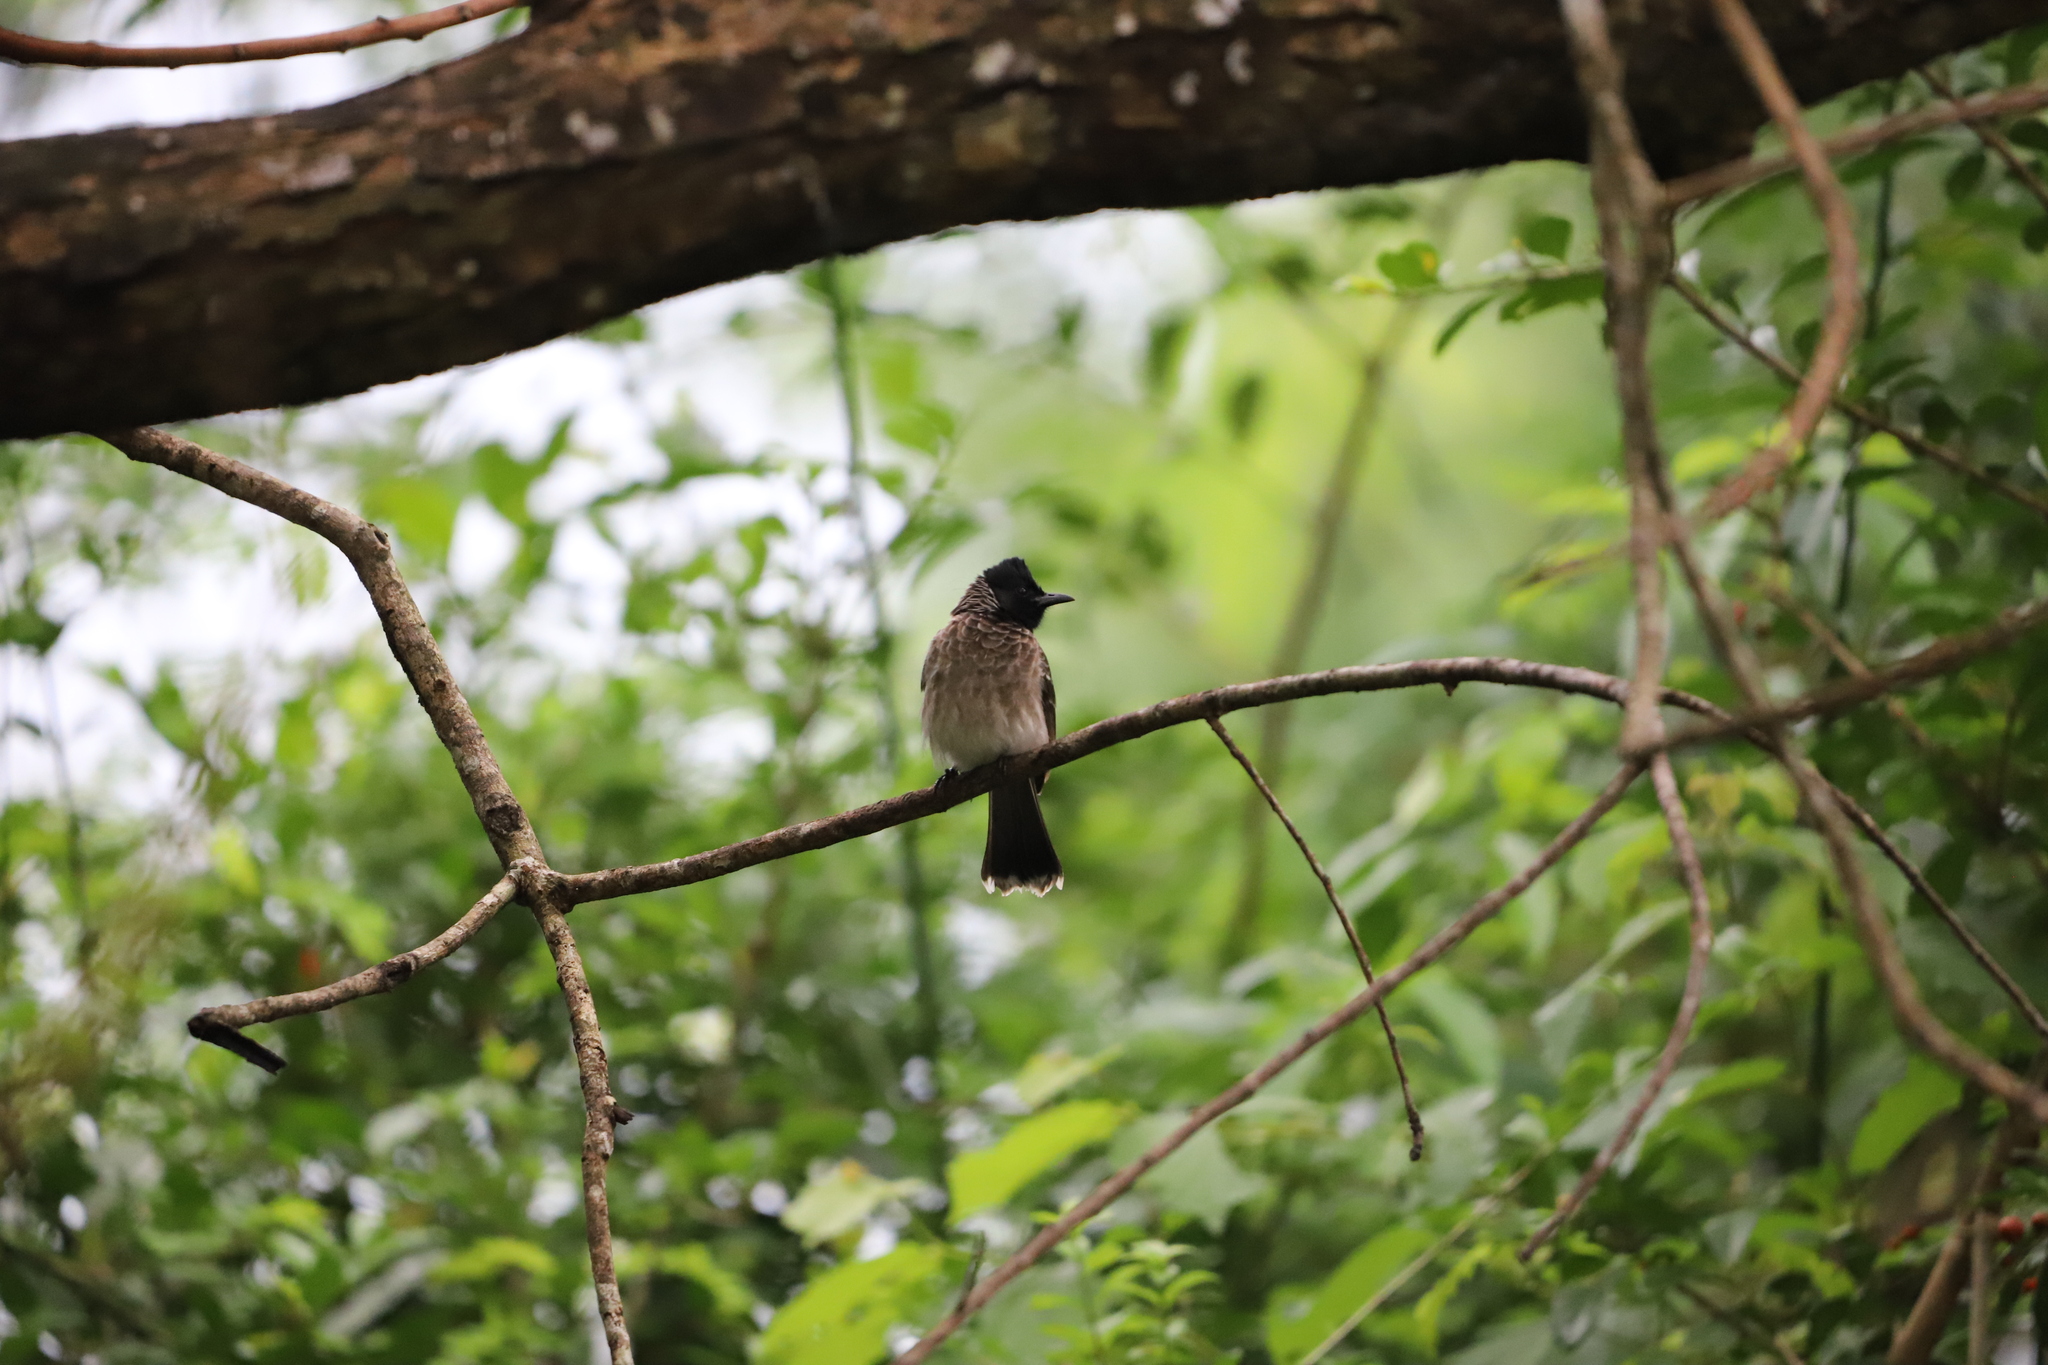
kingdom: Animalia
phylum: Chordata
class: Aves
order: Passeriformes
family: Pycnonotidae
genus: Pycnonotus
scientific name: Pycnonotus cafer
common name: Red-vented bulbul
